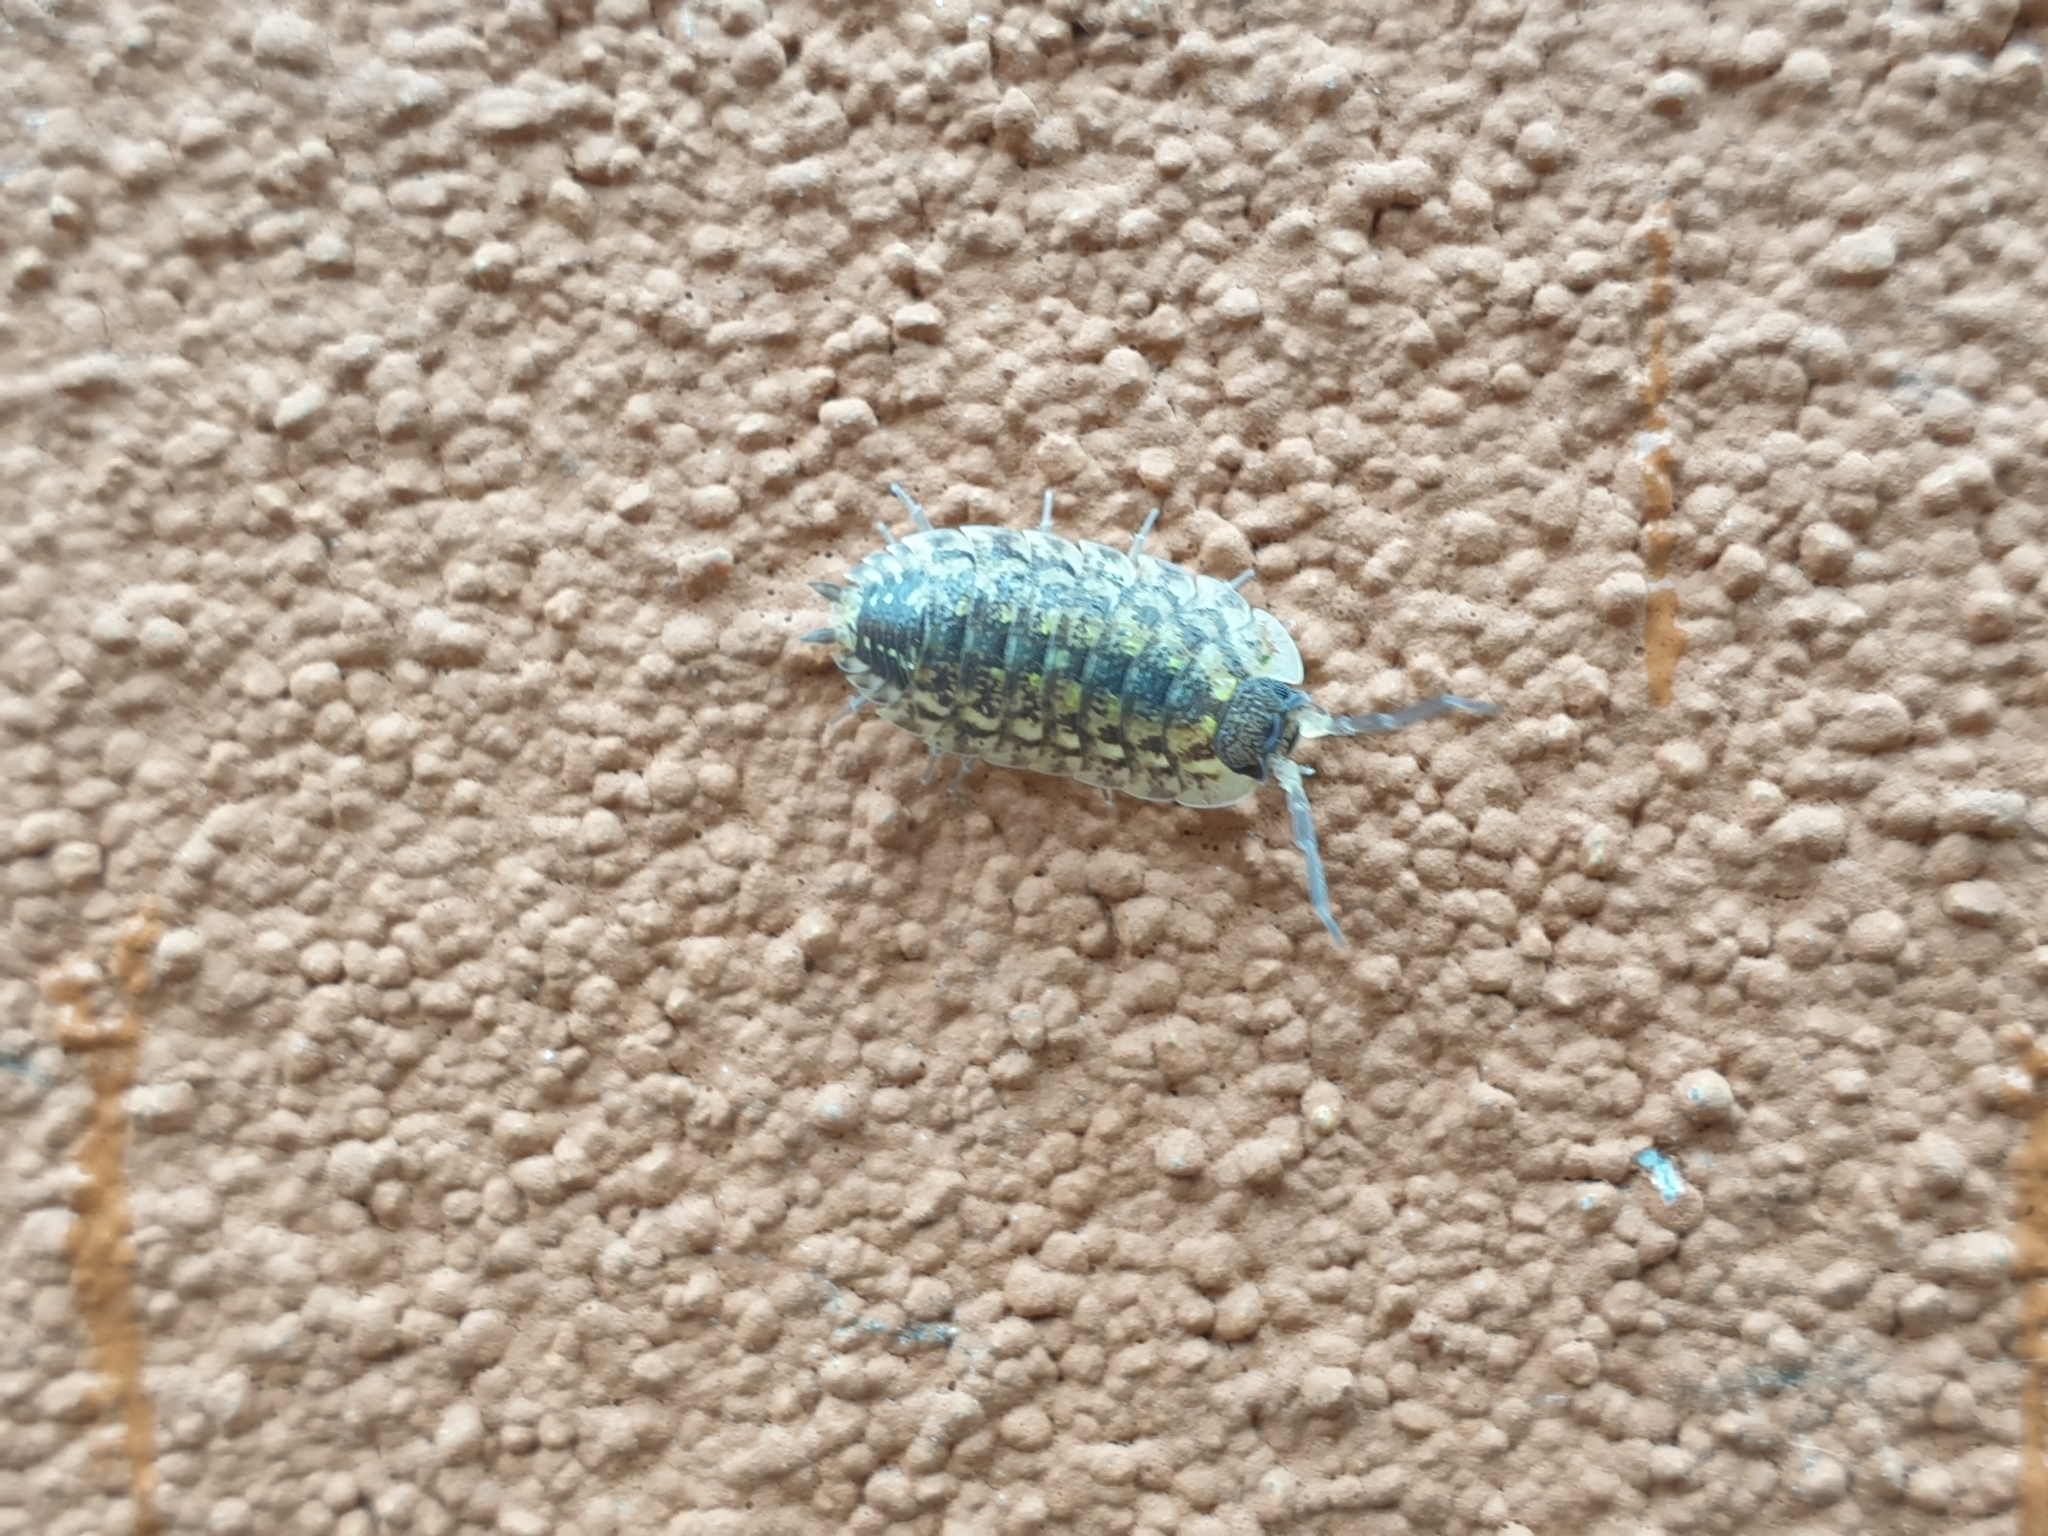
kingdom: Animalia
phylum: Arthropoda
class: Malacostraca
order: Isopoda
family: Porcellionidae
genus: Porcellio
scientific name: Porcellio spinicornis
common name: Painted woodlouse
